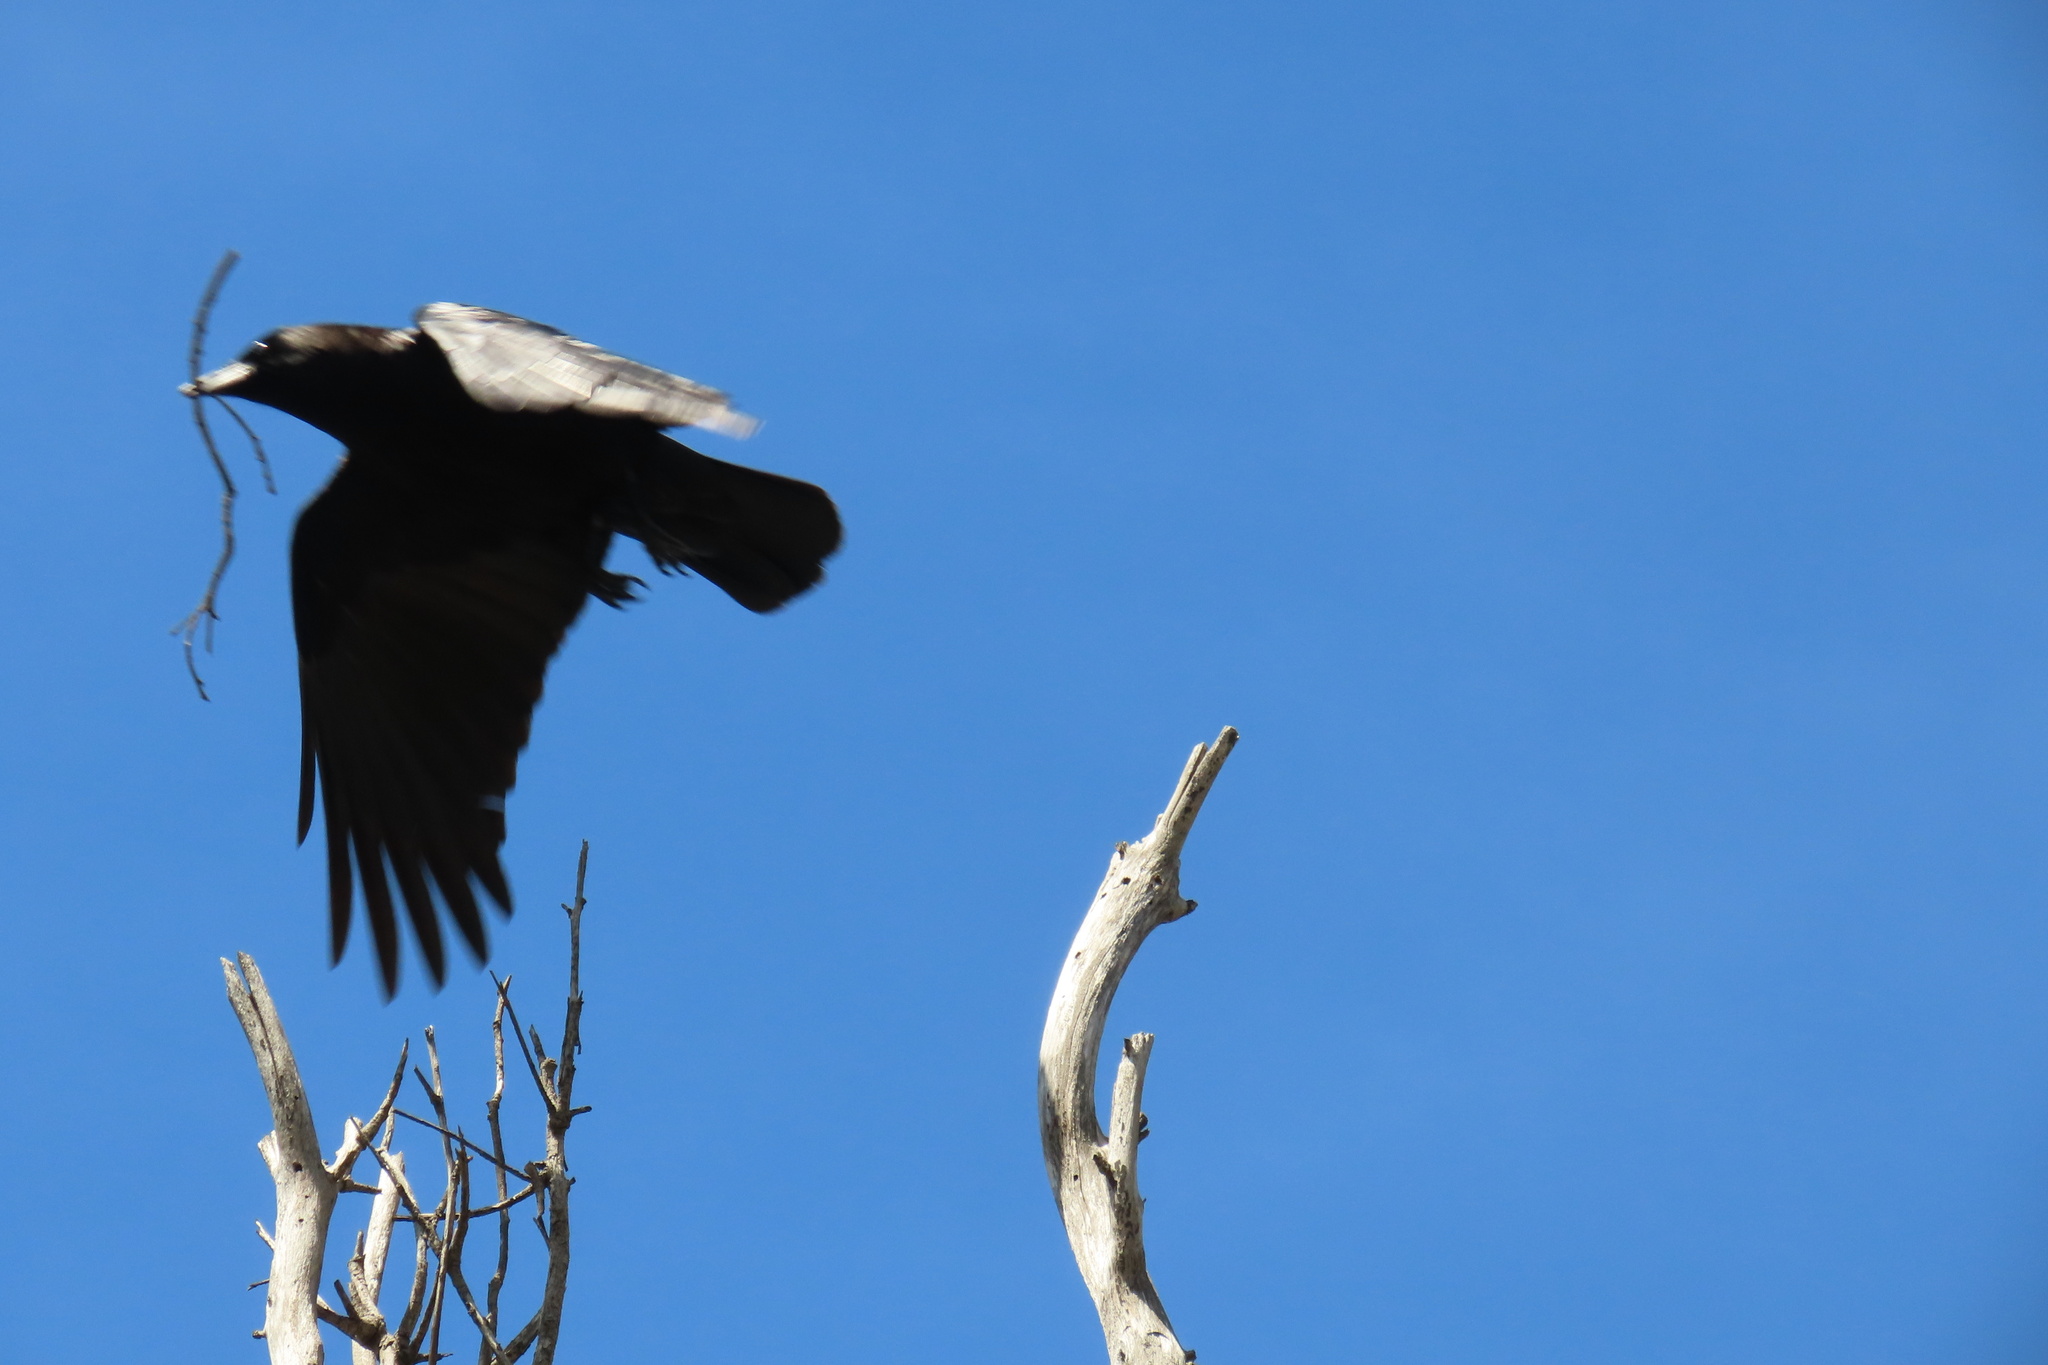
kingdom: Animalia
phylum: Chordata
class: Aves
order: Passeriformes
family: Corvidae
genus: Corvus
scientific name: Corvus brachyrhynchos
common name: American crow
